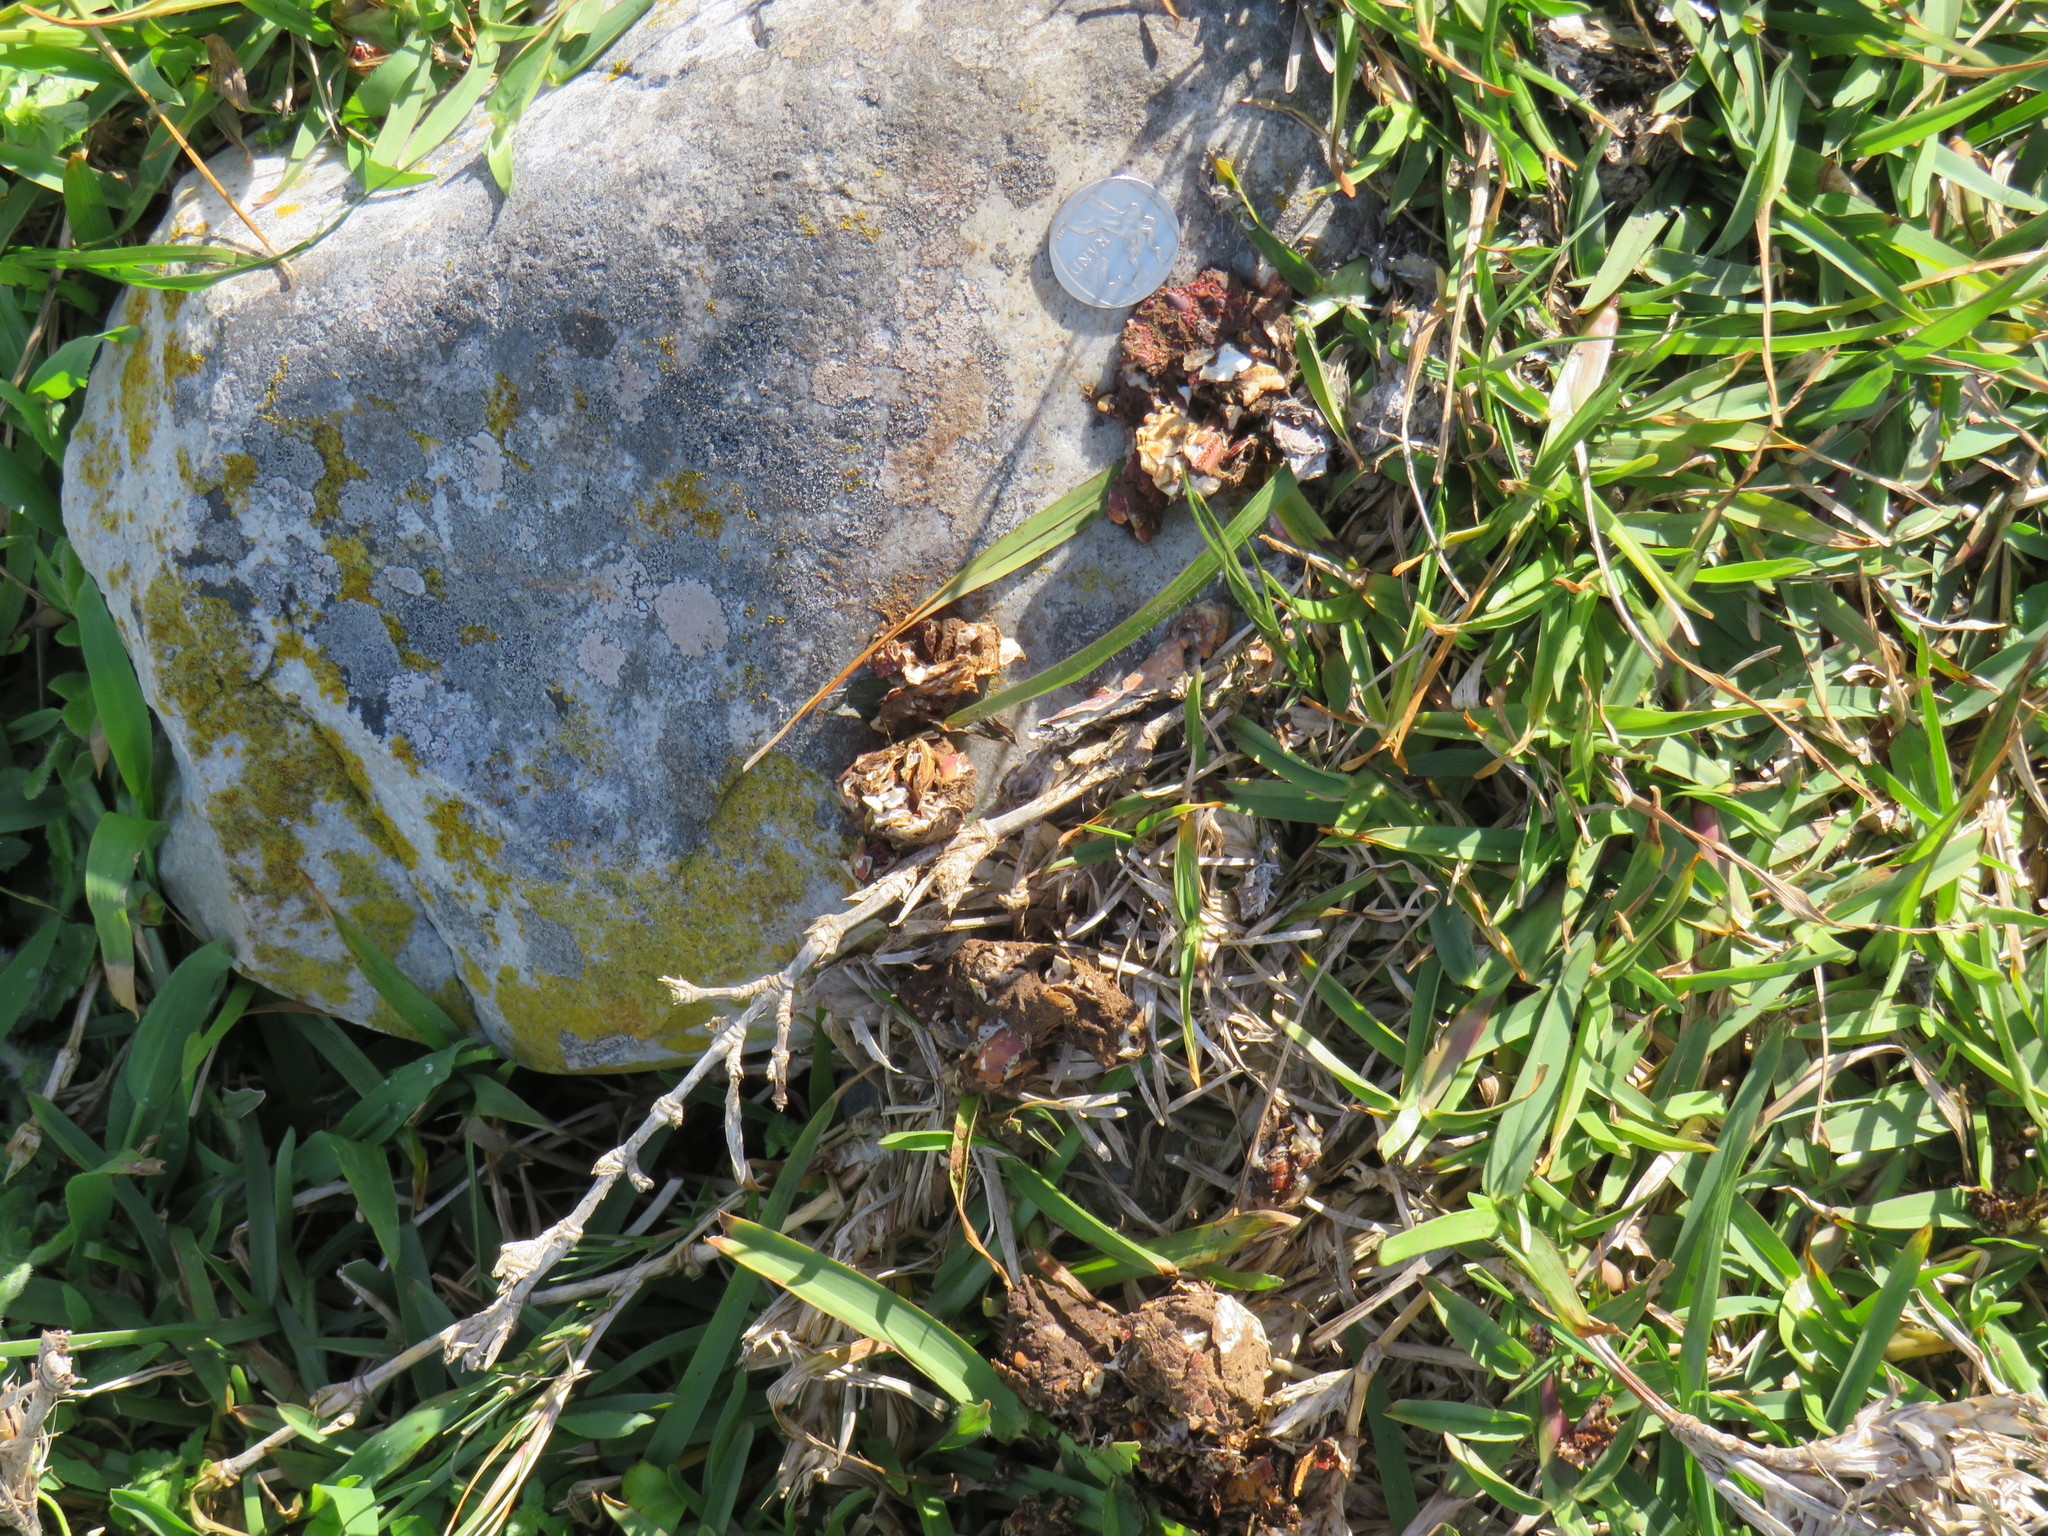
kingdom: Animalia
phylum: Chordata
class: Mammalia
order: Carnivora
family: Mustelidae
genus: Aonyx
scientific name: Aonyx capensis
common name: African clawless otter
